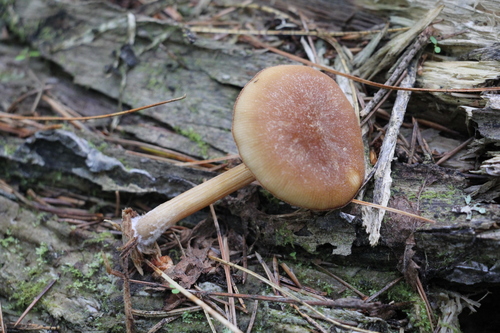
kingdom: Fungi
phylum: Basidiomycota
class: Agaricomycetes
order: Agaricales
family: Pluteaceae
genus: Pluteus
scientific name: Pluteus plautus
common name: Satin shield
